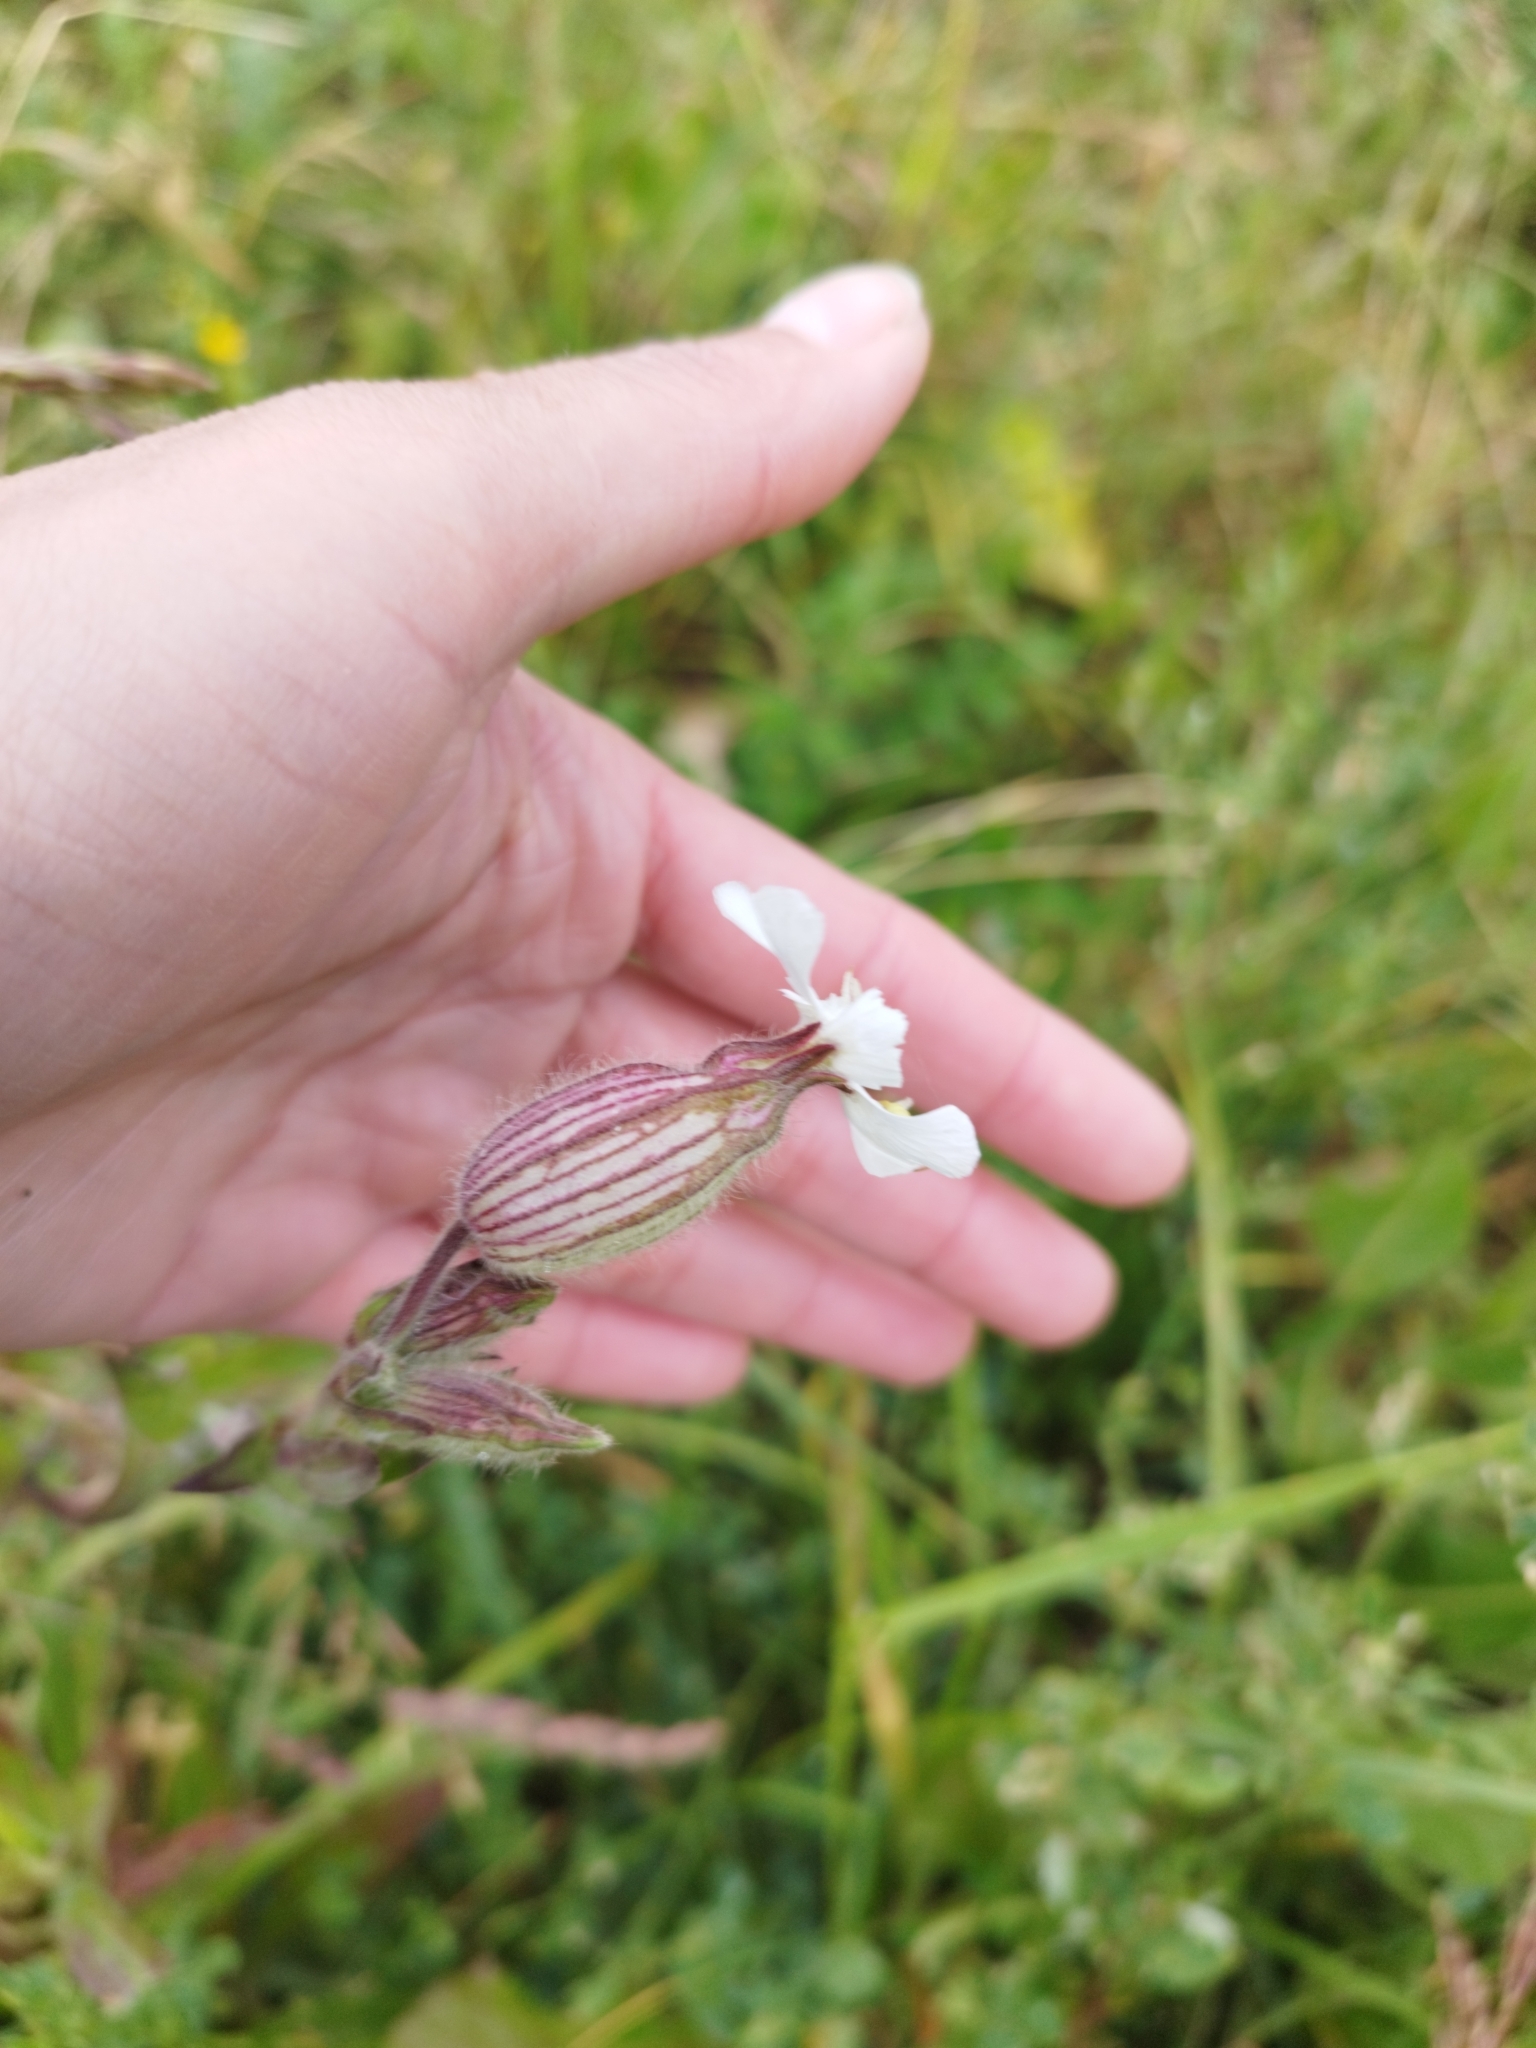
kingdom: Plantae
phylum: Tracheophyta
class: Magnoliopsida
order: Caryophyllales
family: Caryophyllaceae
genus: Silene
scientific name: Silene latifolia
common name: White campion
